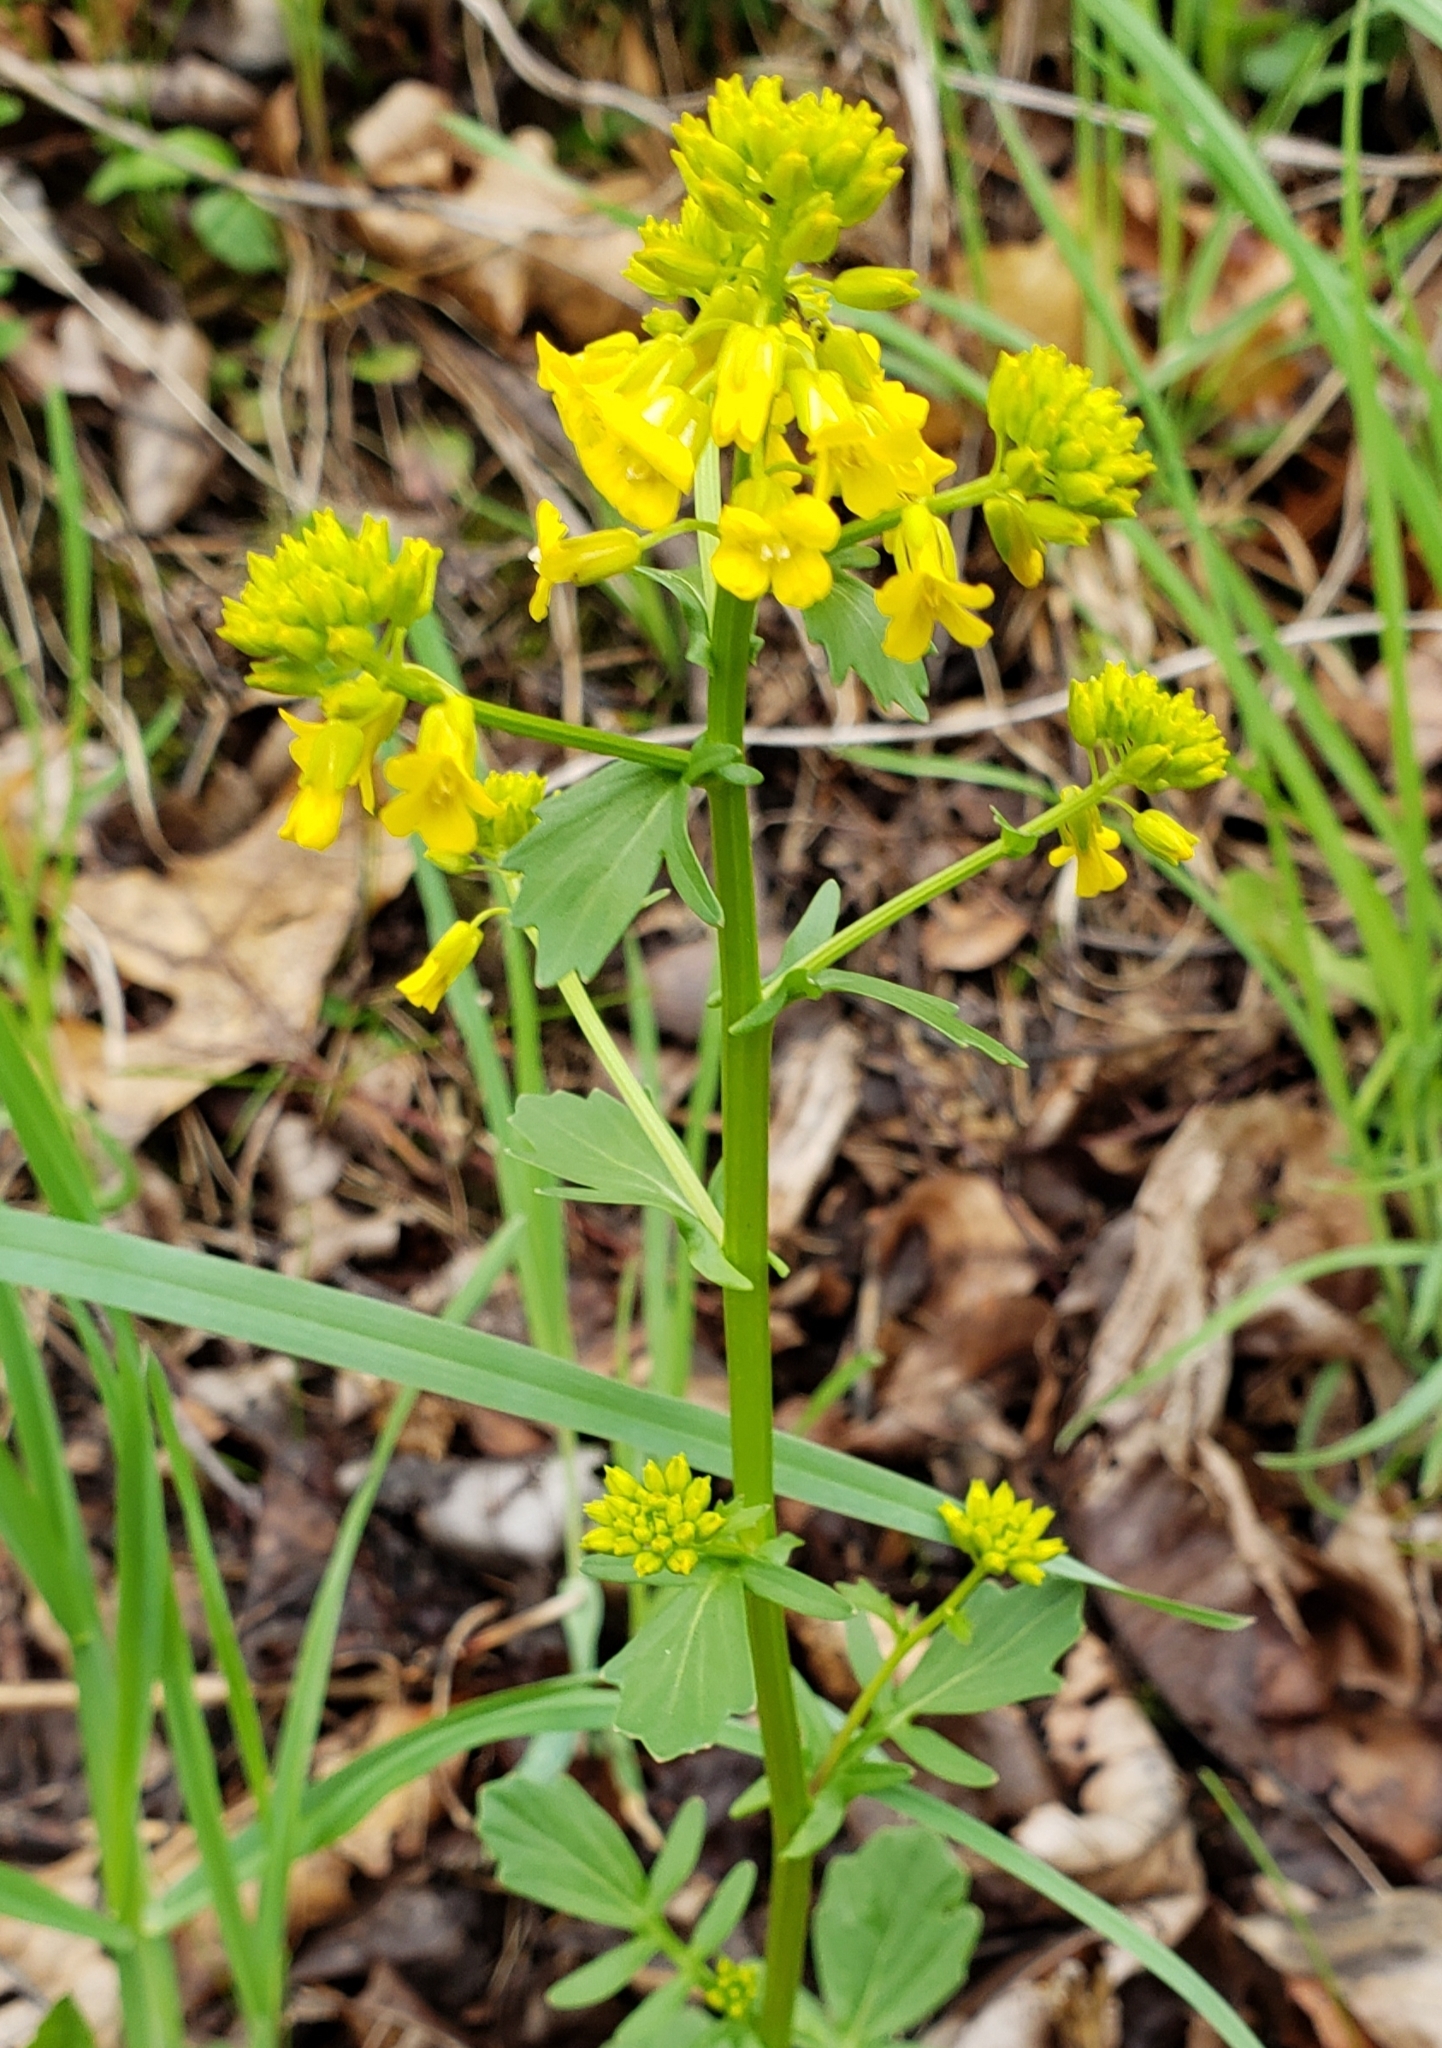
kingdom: Plantae
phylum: Tracheophyta
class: Magnoliopsida
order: Brassicales
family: Brassicaceae
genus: Barbarea
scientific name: Barbarea vulgaris
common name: Cressy-greens
